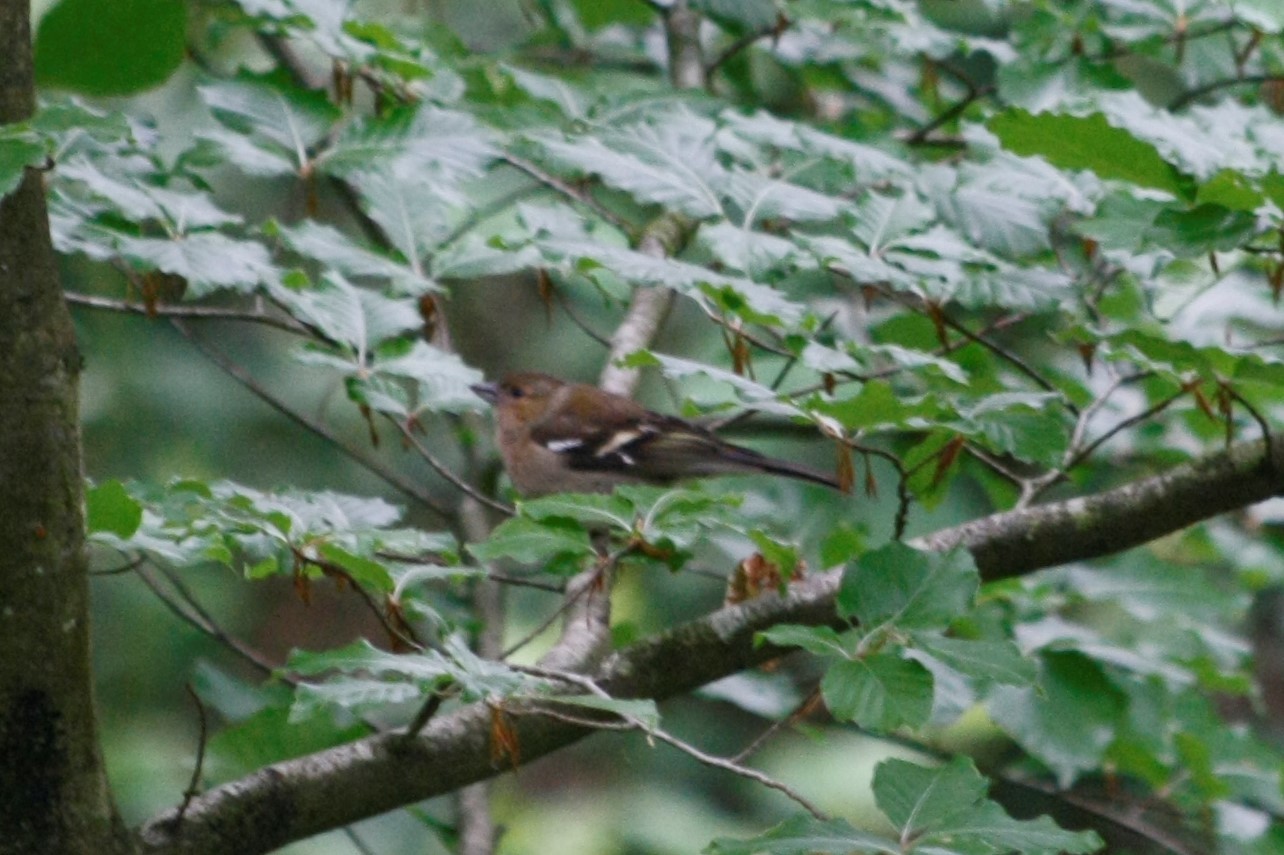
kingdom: Animalia
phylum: Chordata
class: Aves
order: Passeriformes
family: Fringillidae
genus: Fringilla
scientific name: Fringilla coelebs
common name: Common chaffinch
